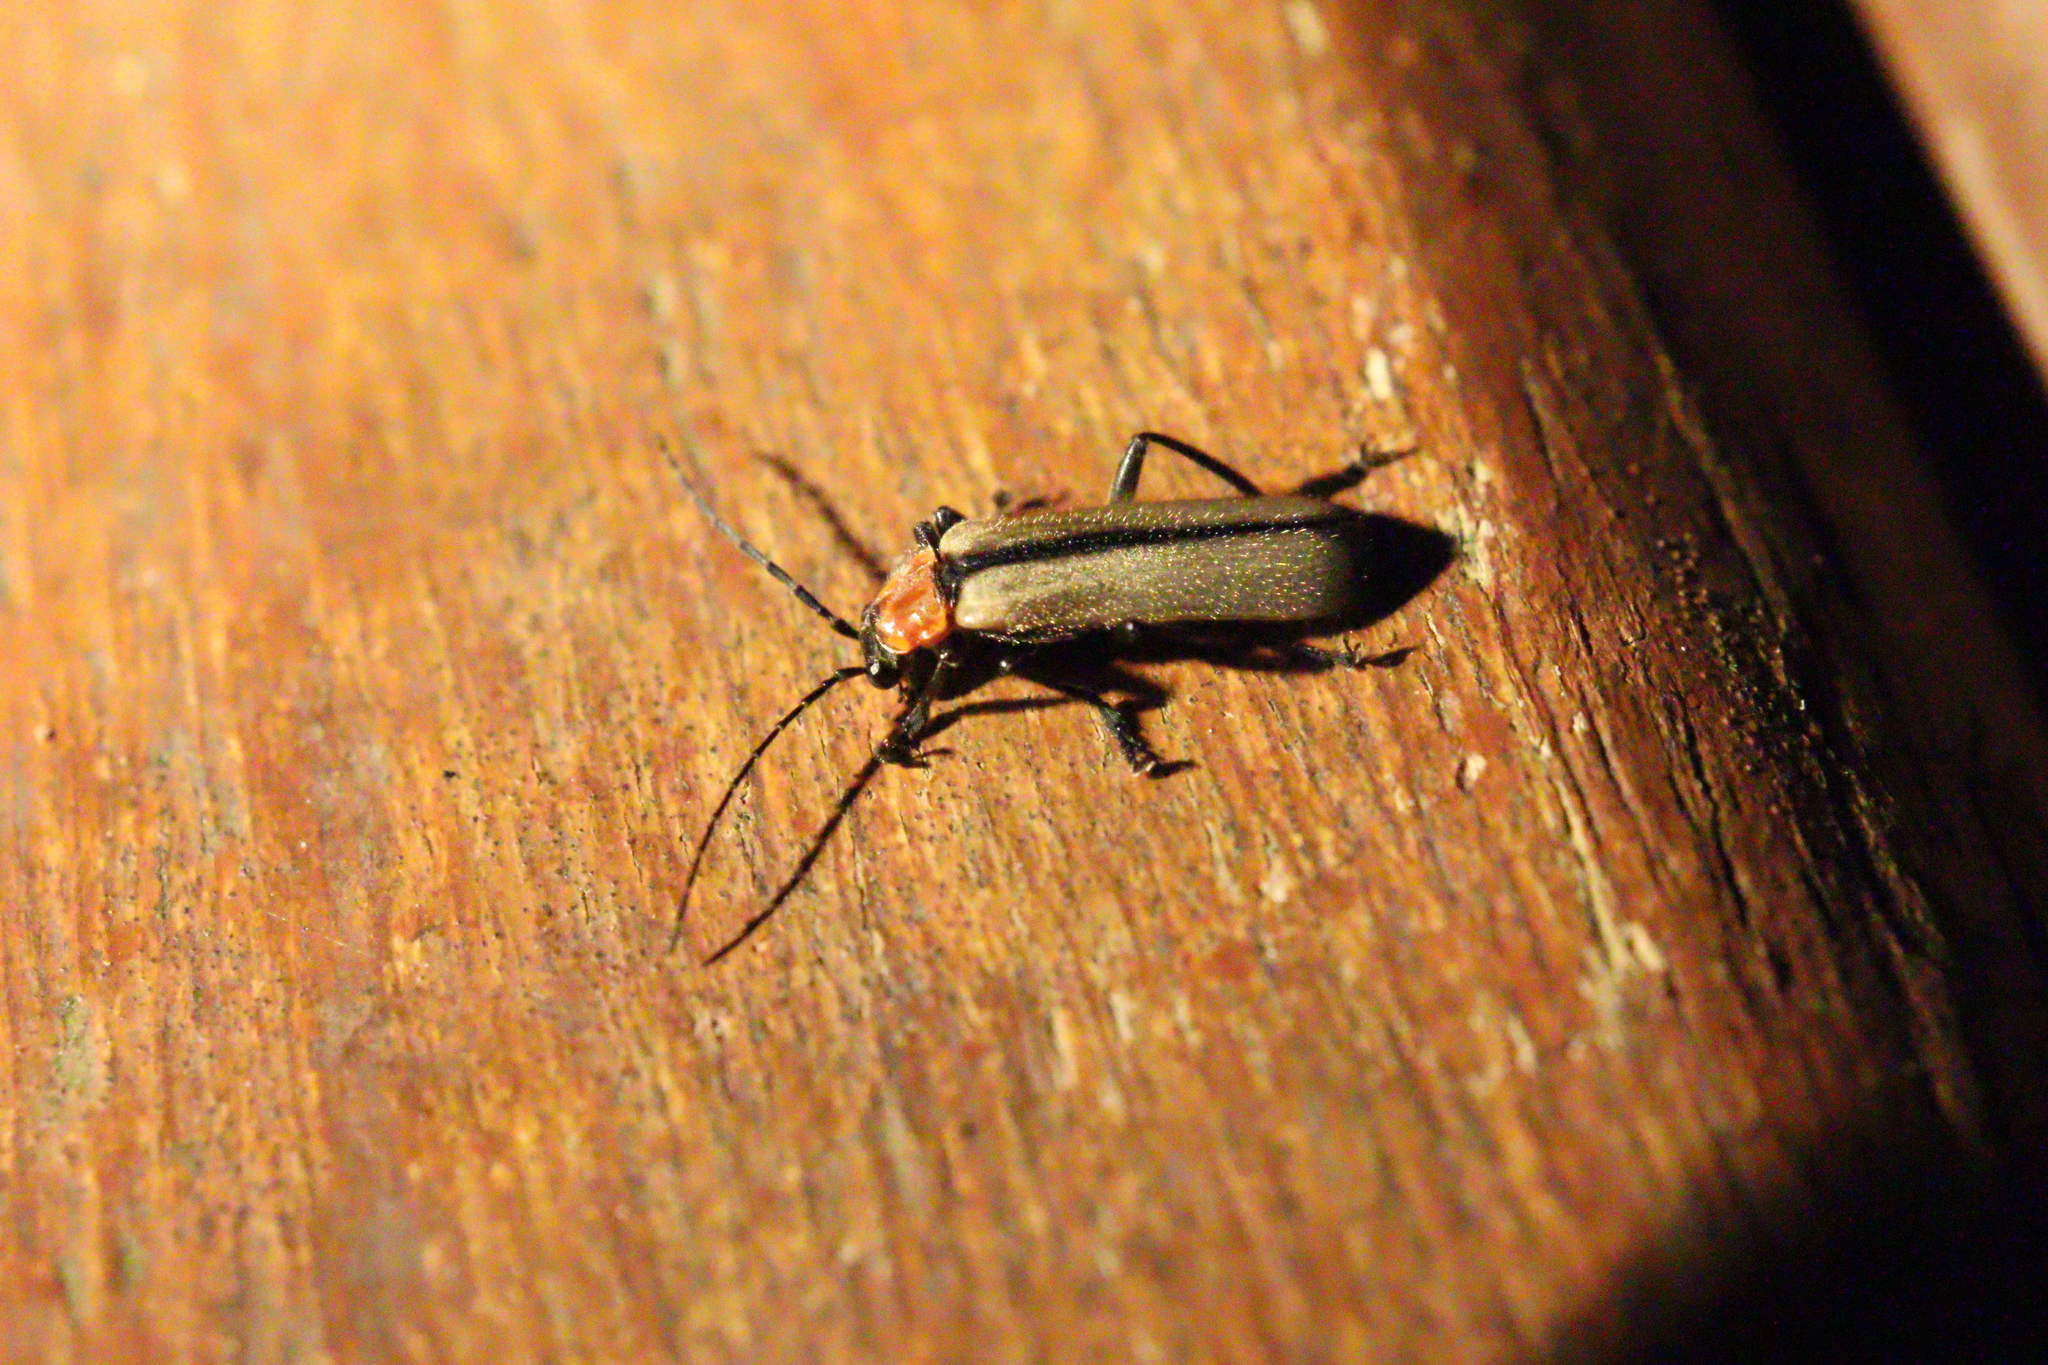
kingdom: Animalia
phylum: Arthropoda
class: Insecta
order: Coleoptera
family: Cantharidae
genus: Discodon
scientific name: Discodon
